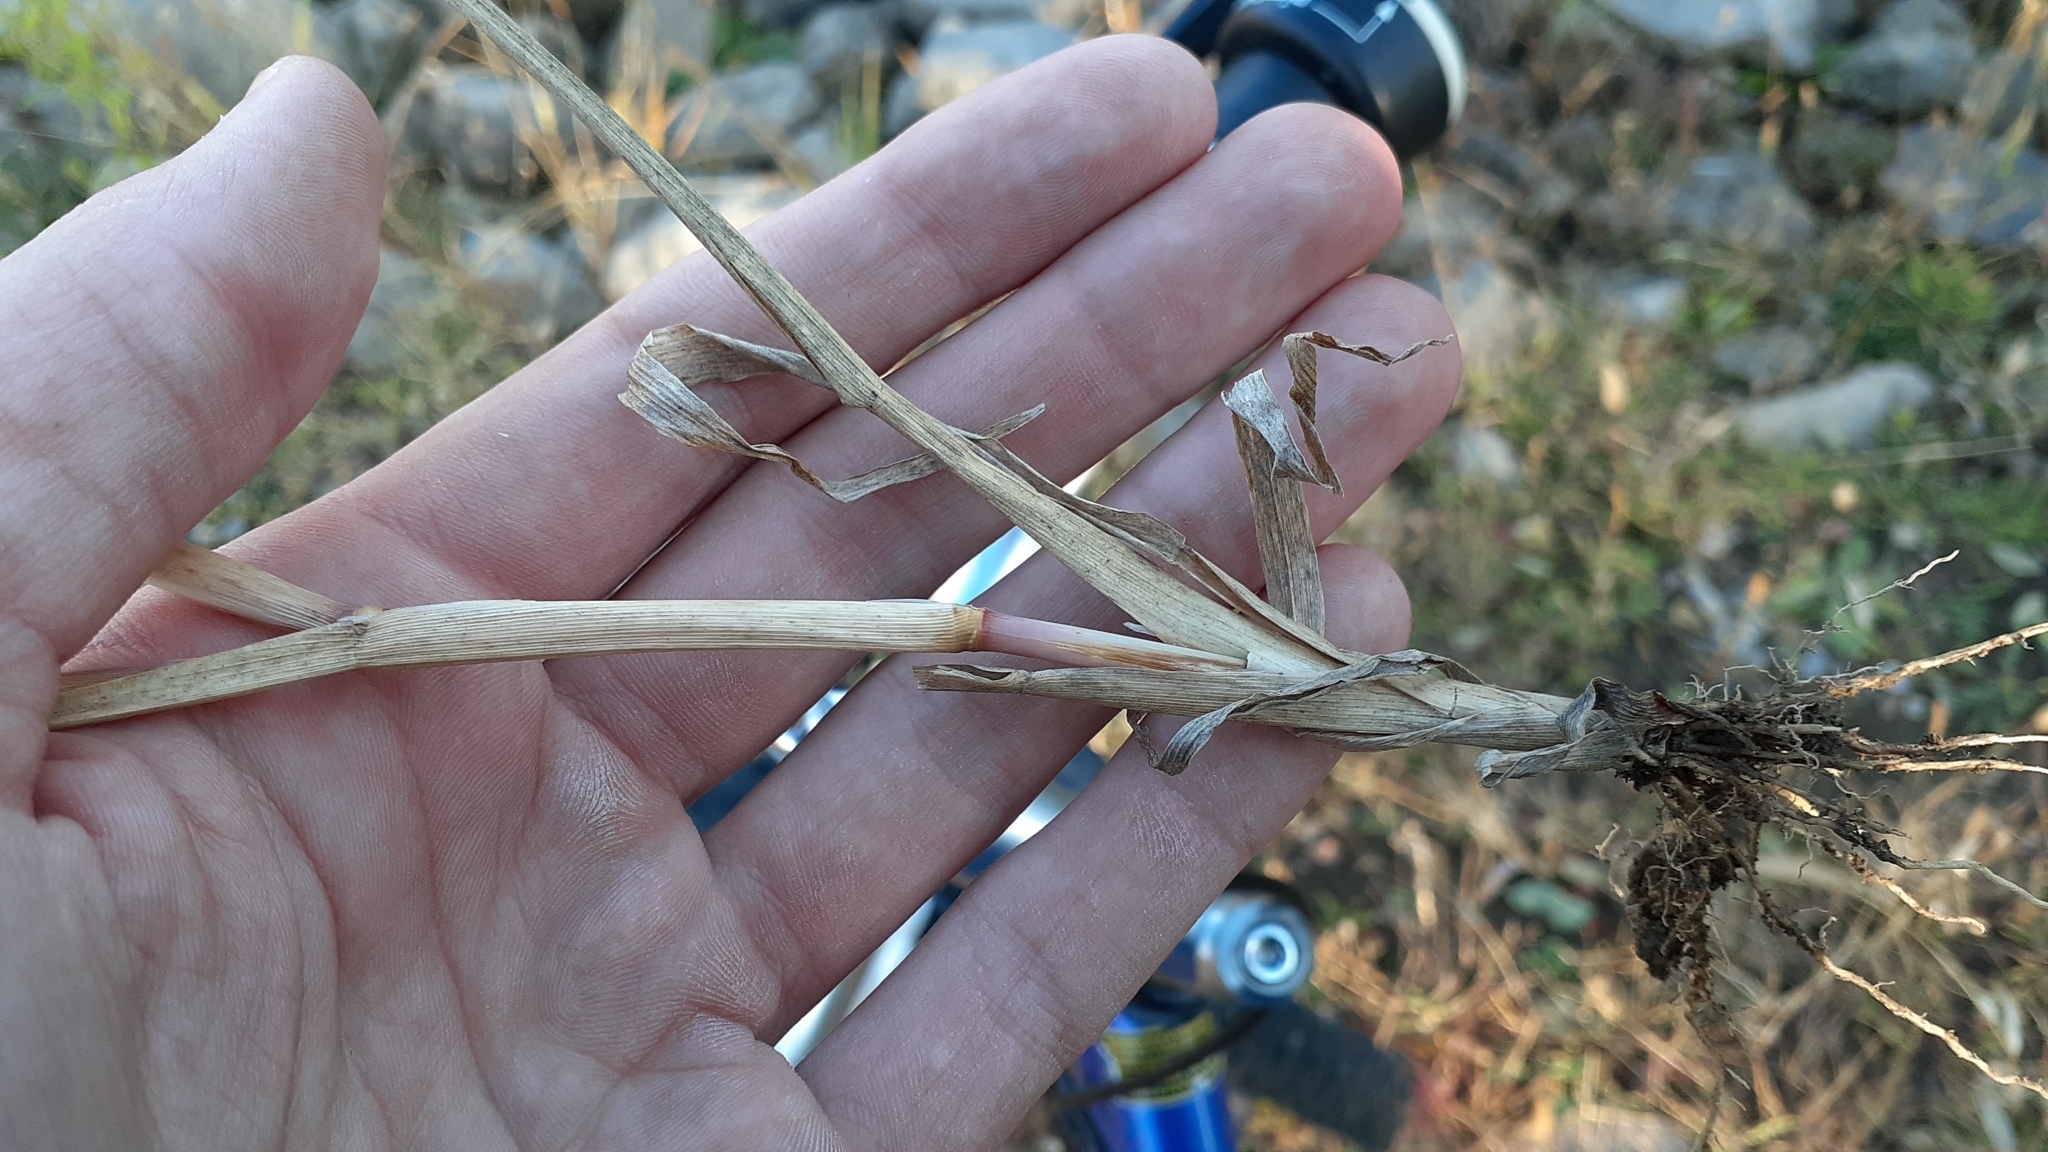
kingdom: Plantae
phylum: Tracheophyta
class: Liliopsida
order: Poales
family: Poaceae
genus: Panicum
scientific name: Panicum dichotomiflorum
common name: Autumn millet
